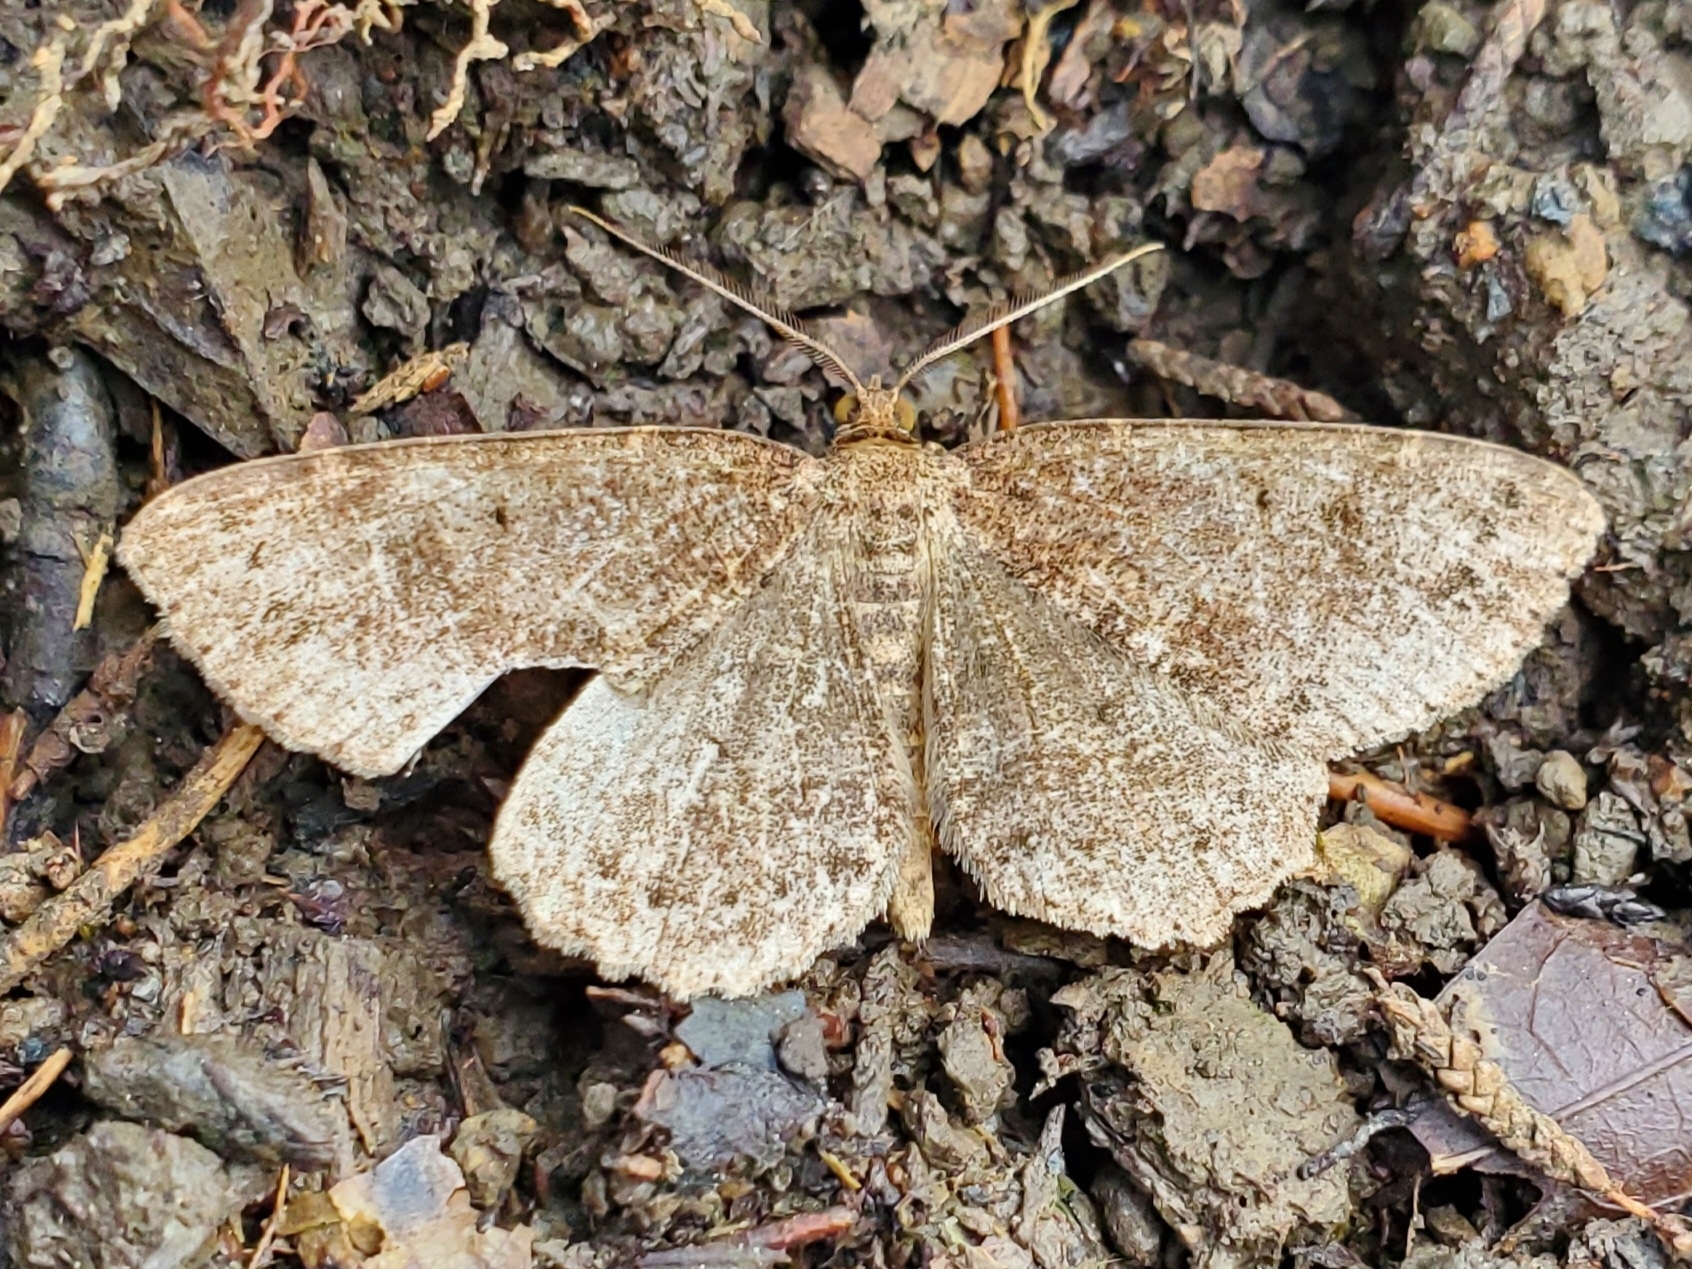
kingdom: Animalia
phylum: Arthropoda
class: Insecta
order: Lepidoptera
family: Geometridae
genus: Melanolophia
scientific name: Melanolophia signataria
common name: Signate melanolophia
